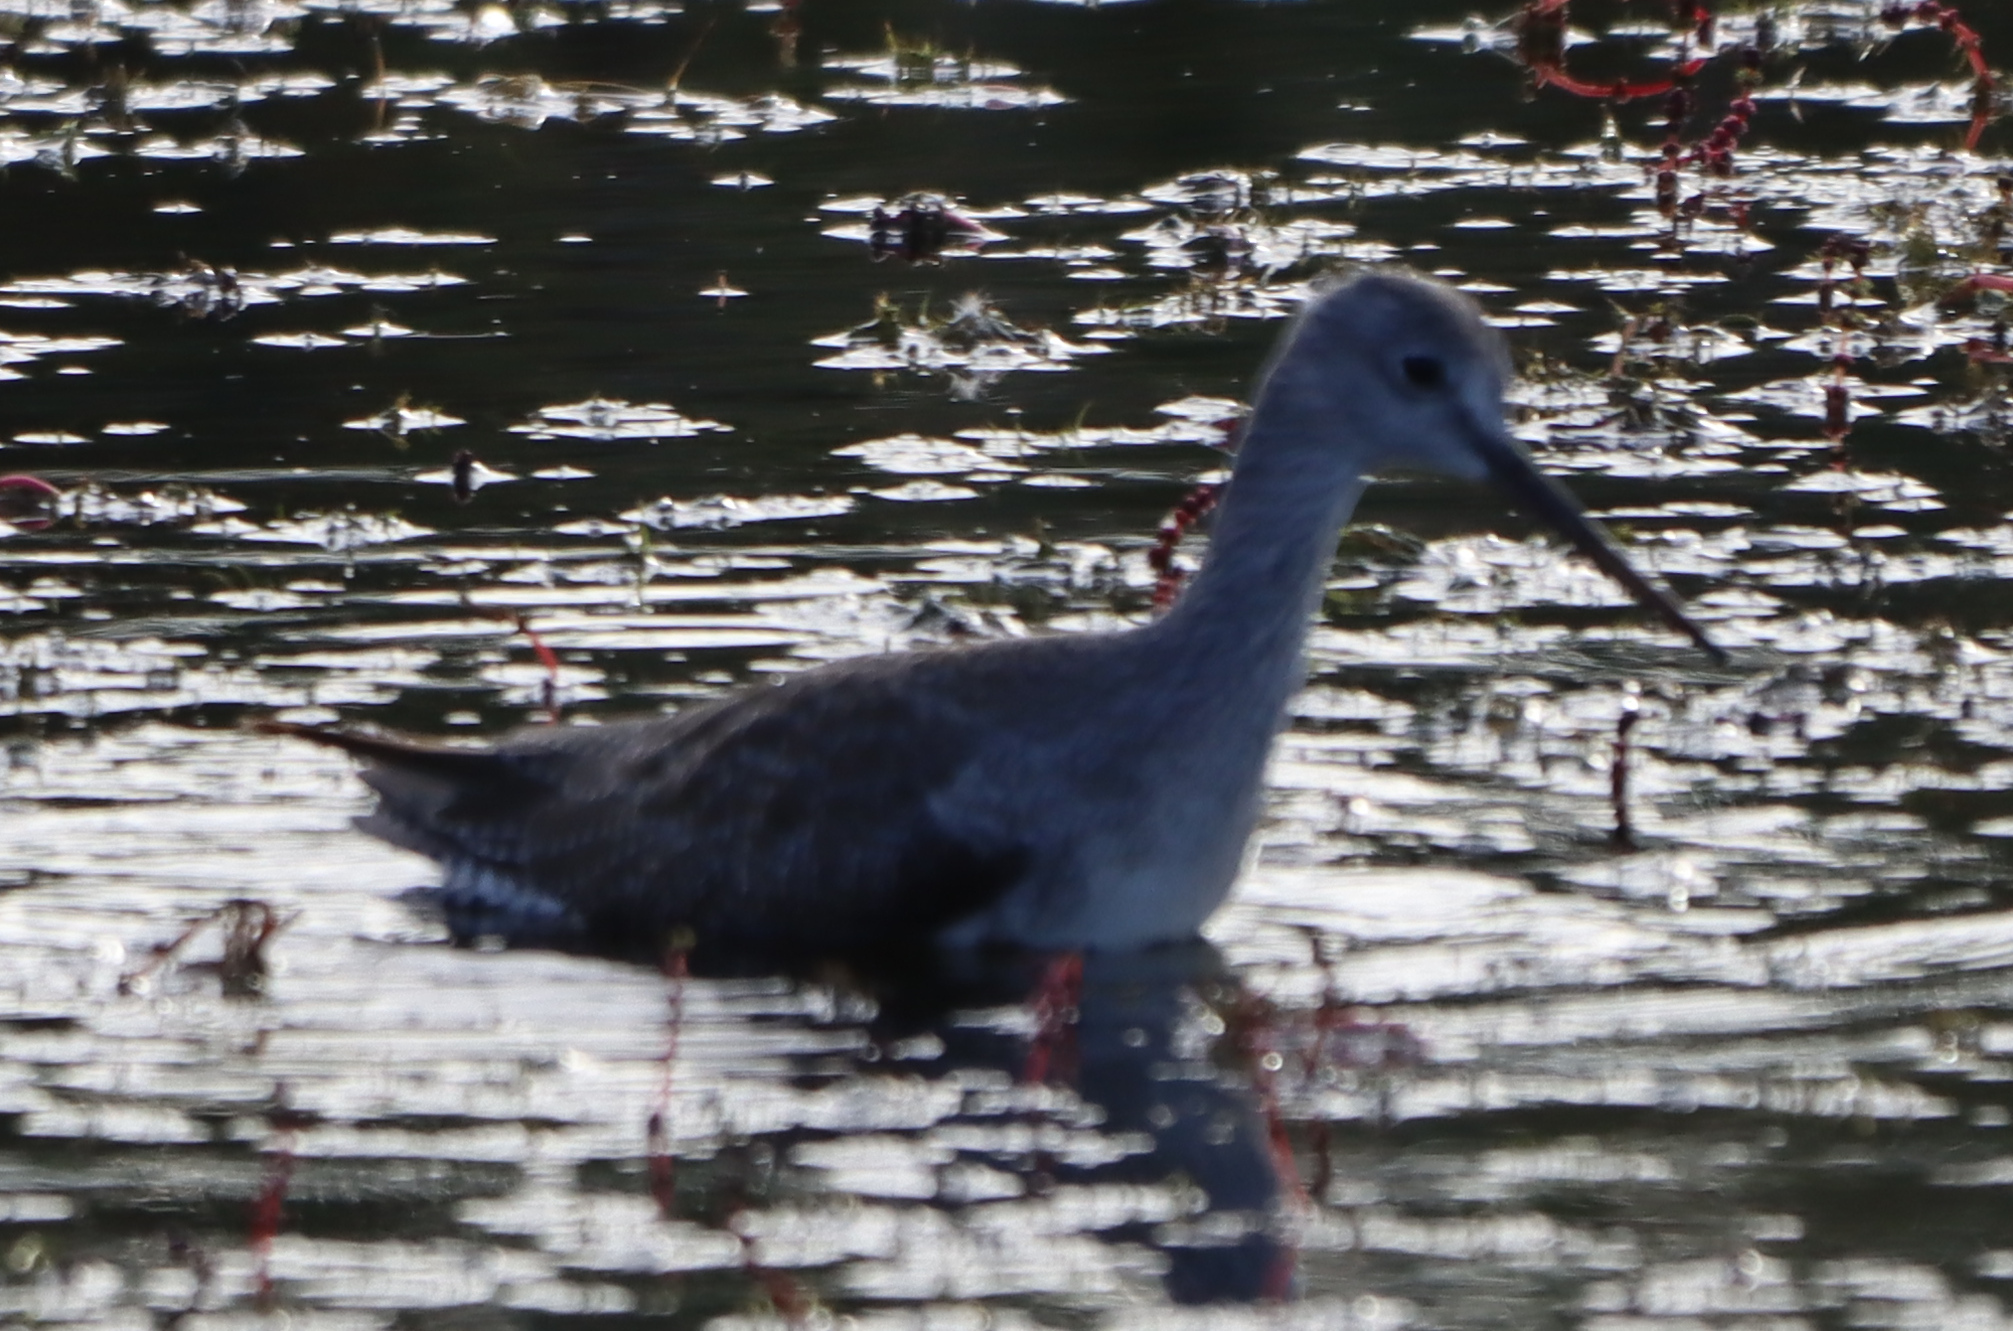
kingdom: Animalia
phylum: Chordata
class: Aves
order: Charadriiformes
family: Scolopacidae
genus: Tringa
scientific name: Tringa melanoleuca
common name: Greater yellowlegs
